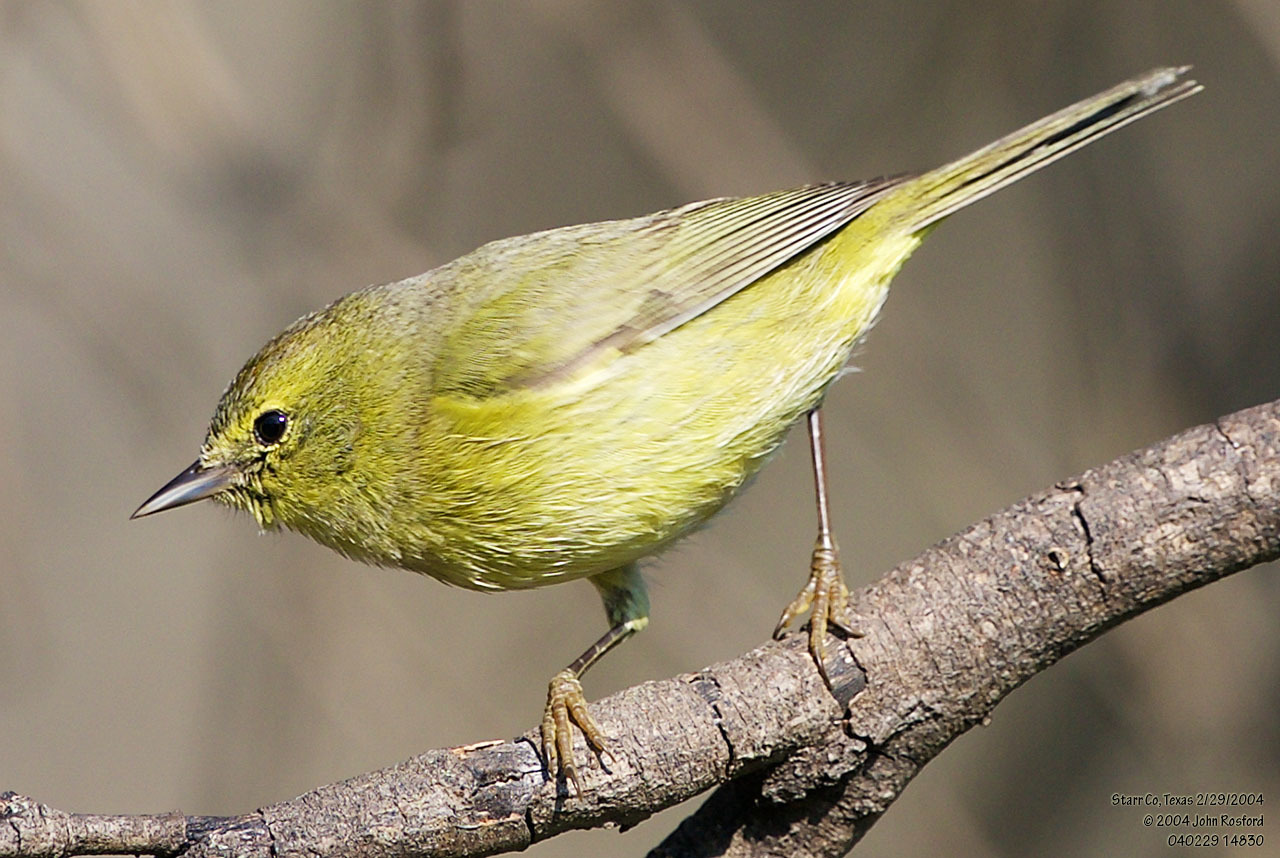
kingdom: Animalia
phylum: Chordata
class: Aves
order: Passeriformes
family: Parulidae
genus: Leiothlypis
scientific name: Leiothlypis celata
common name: Orange-crowned warbler
